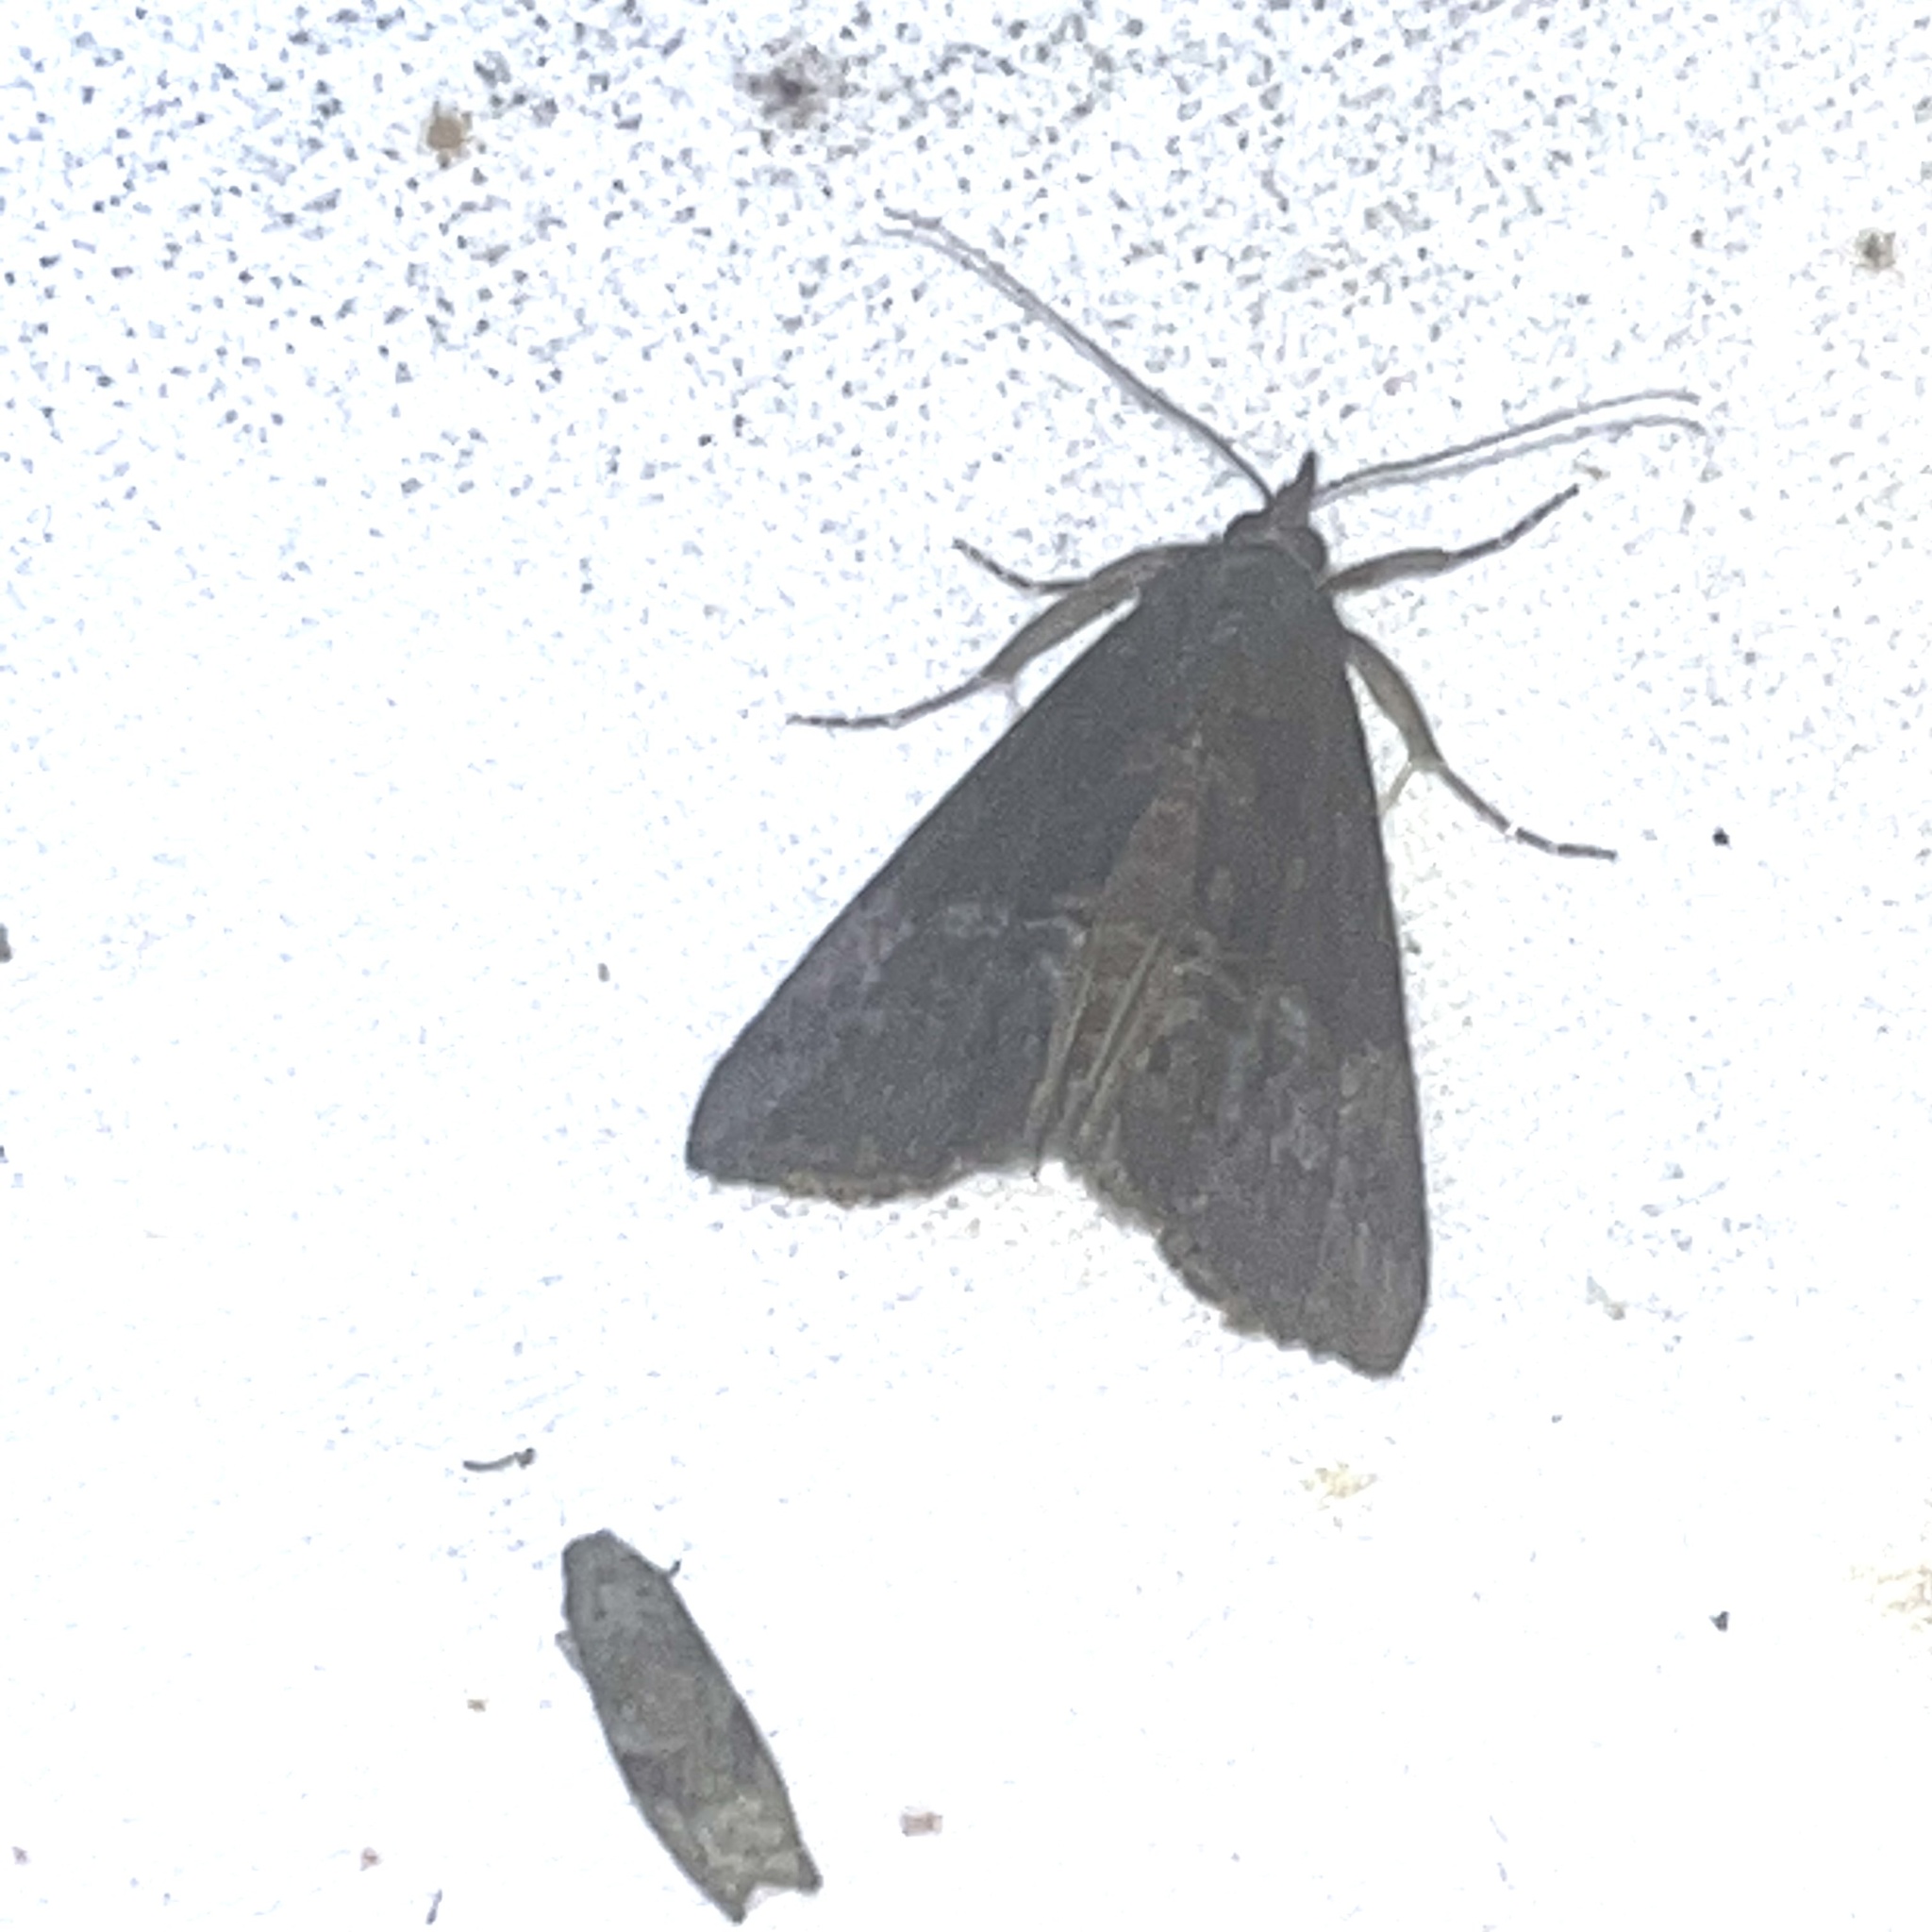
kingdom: Animalia
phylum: Arthropoda
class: Insecta
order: Lepidoptera
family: Erebidae
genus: Hypena
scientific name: Hypena scabra
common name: Green cloverworm
